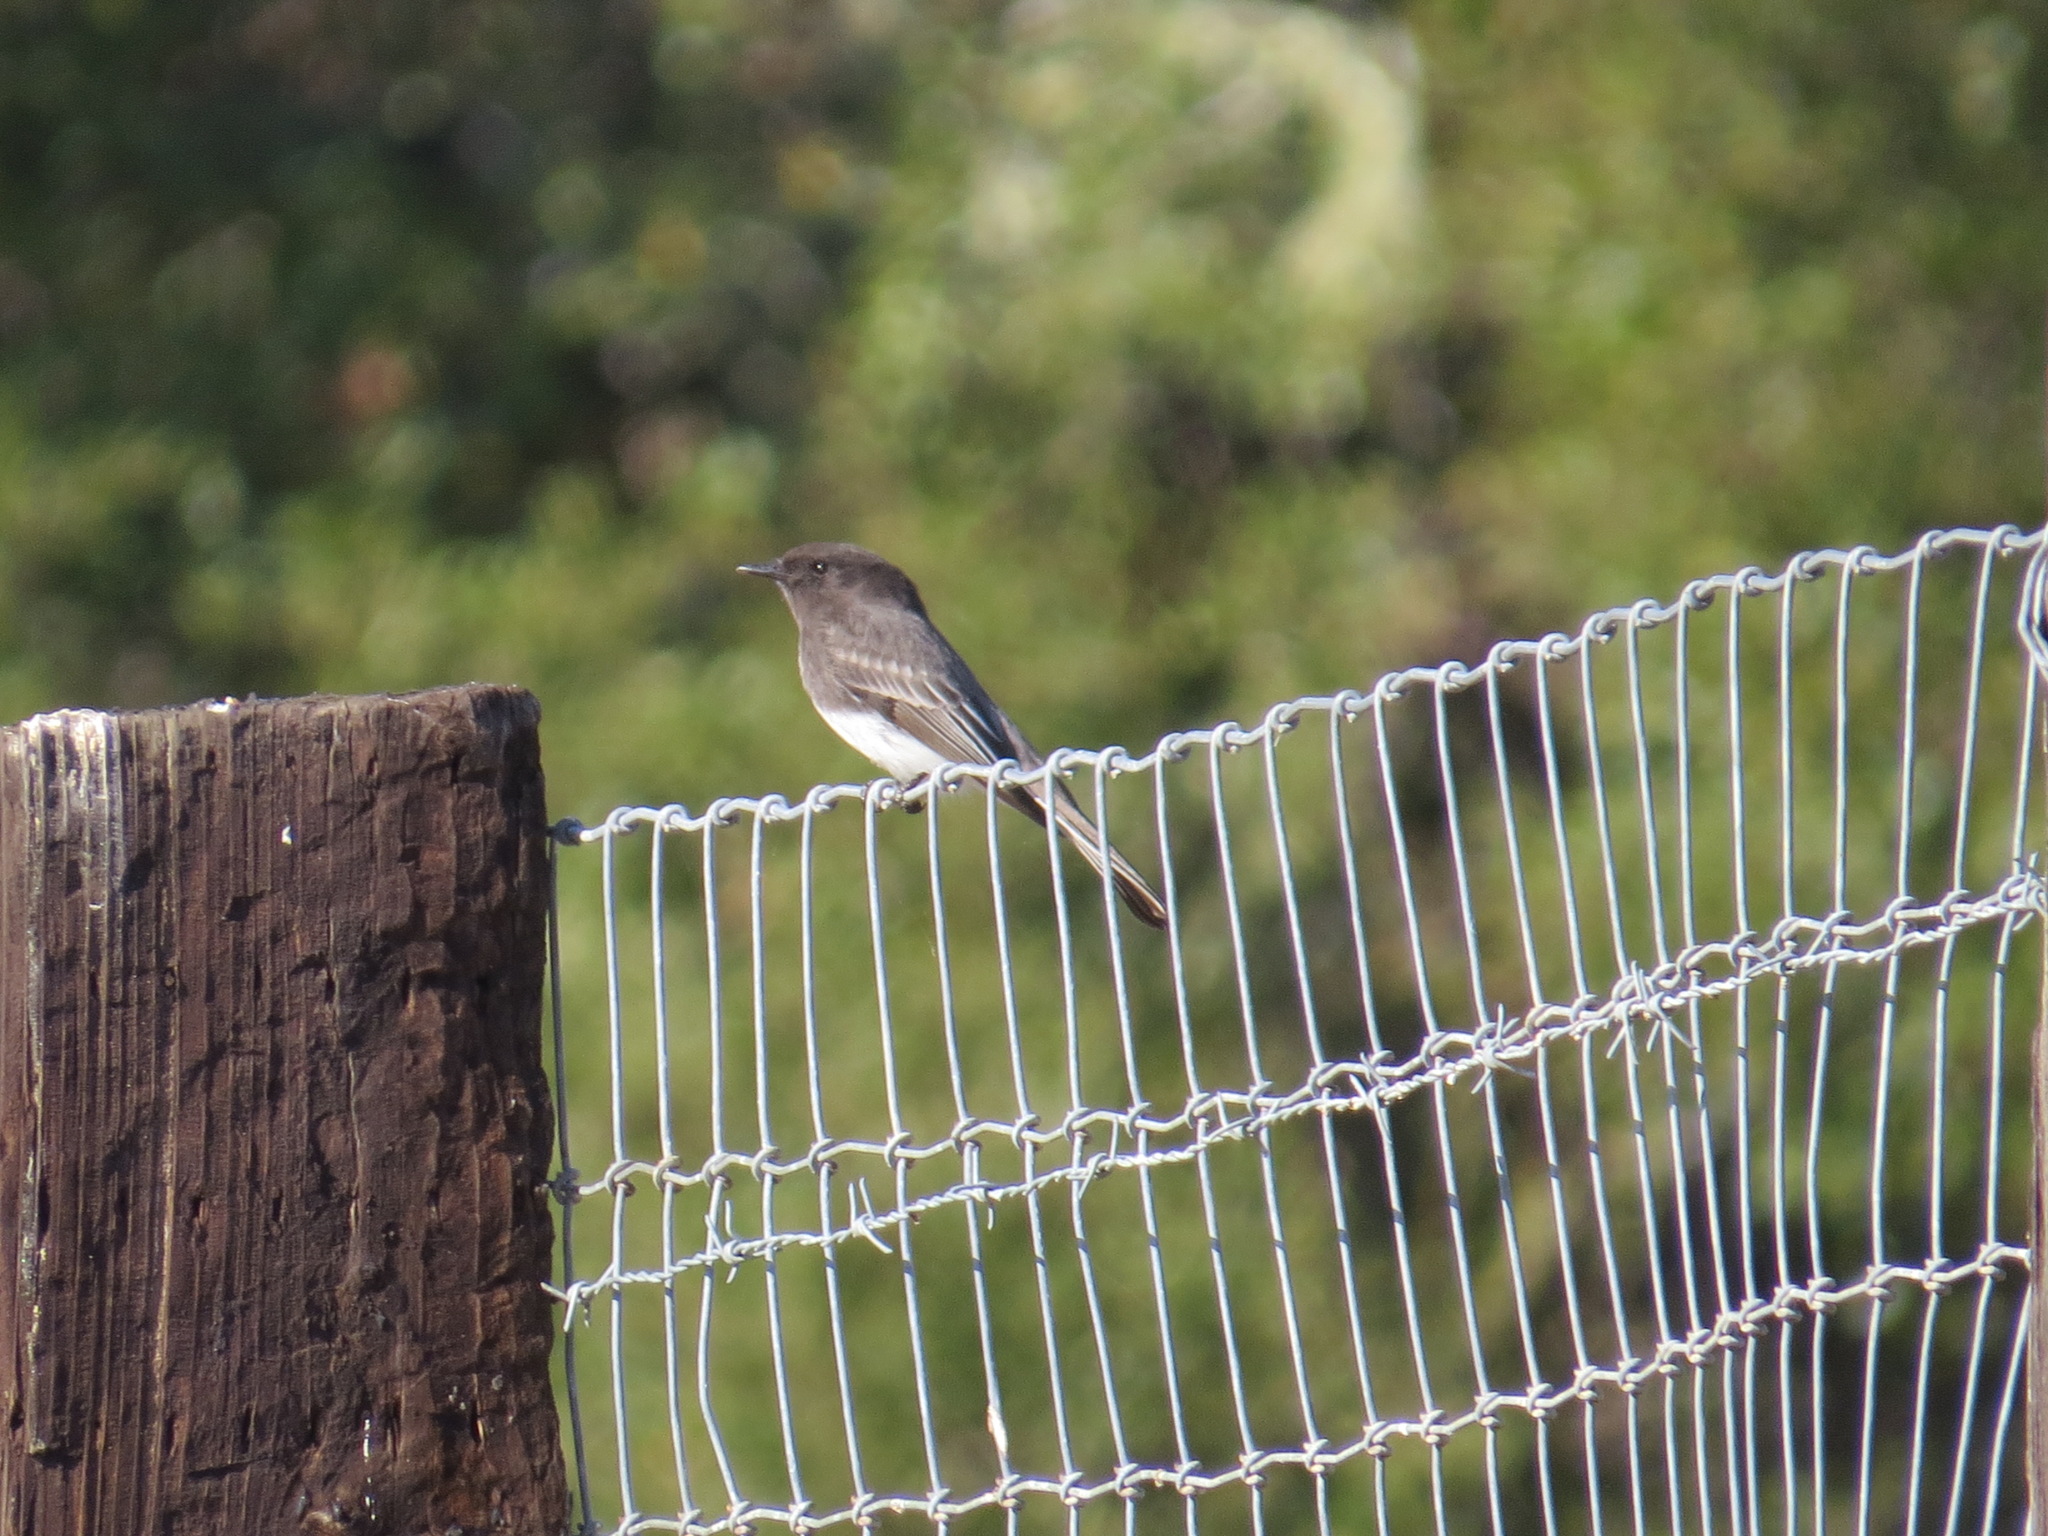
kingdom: Animalia
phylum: Chordata
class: Aves
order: Passeriformes
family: Tyrannidae
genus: Sayornis
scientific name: Sayornis nigricans
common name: Black phoebe
